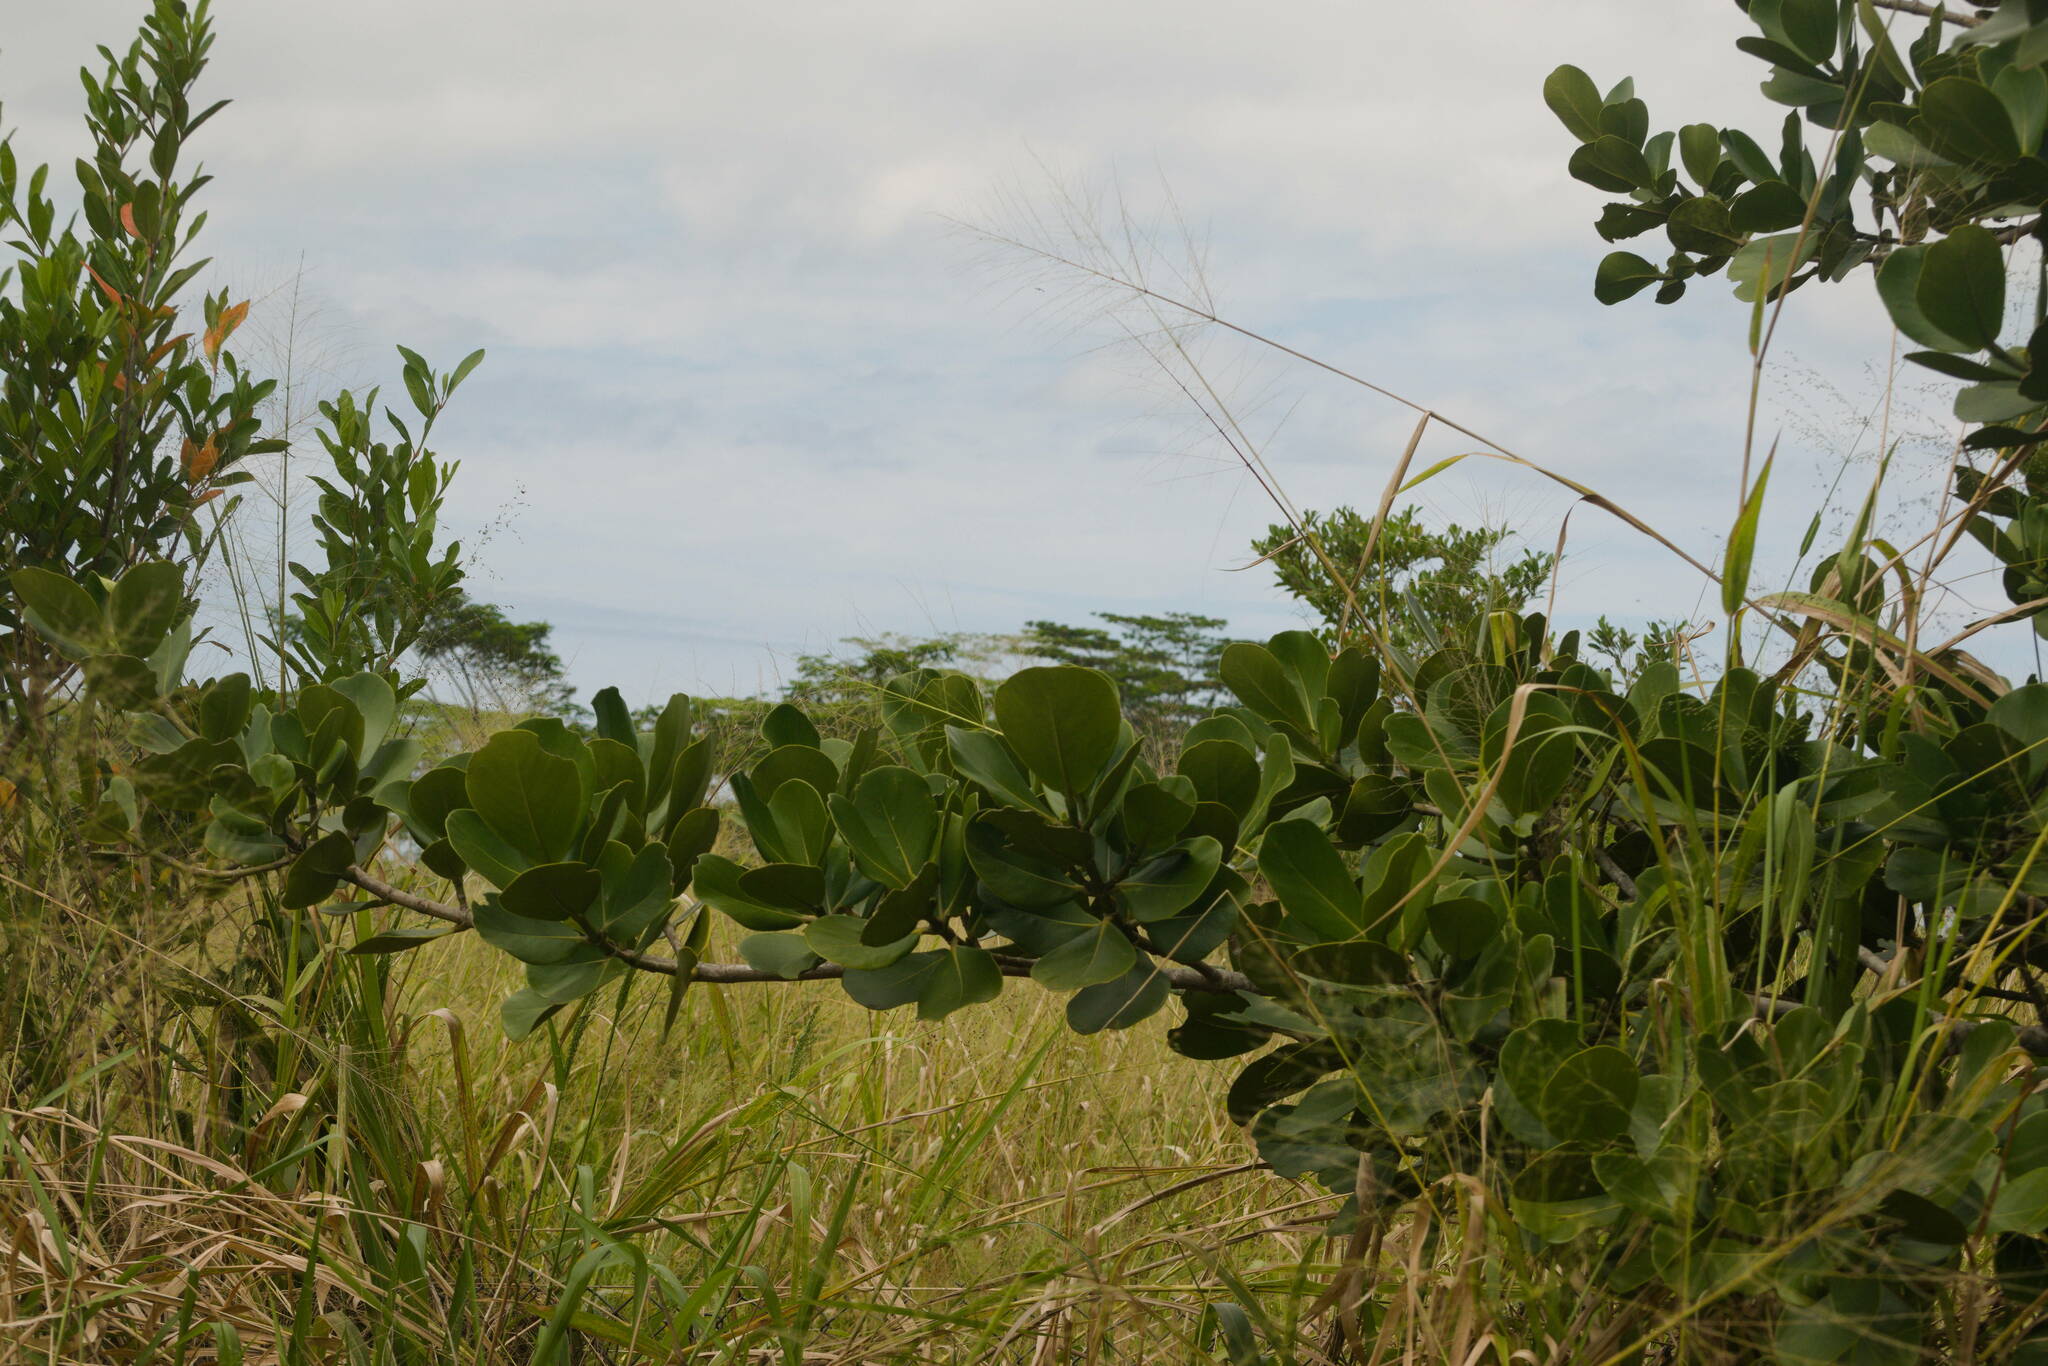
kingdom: Plantae
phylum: Tracheophyta
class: Magnoliopsida
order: Malpighiales
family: Clusiaceae
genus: Clusia
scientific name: Clusia rosea
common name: Scotch attorney
